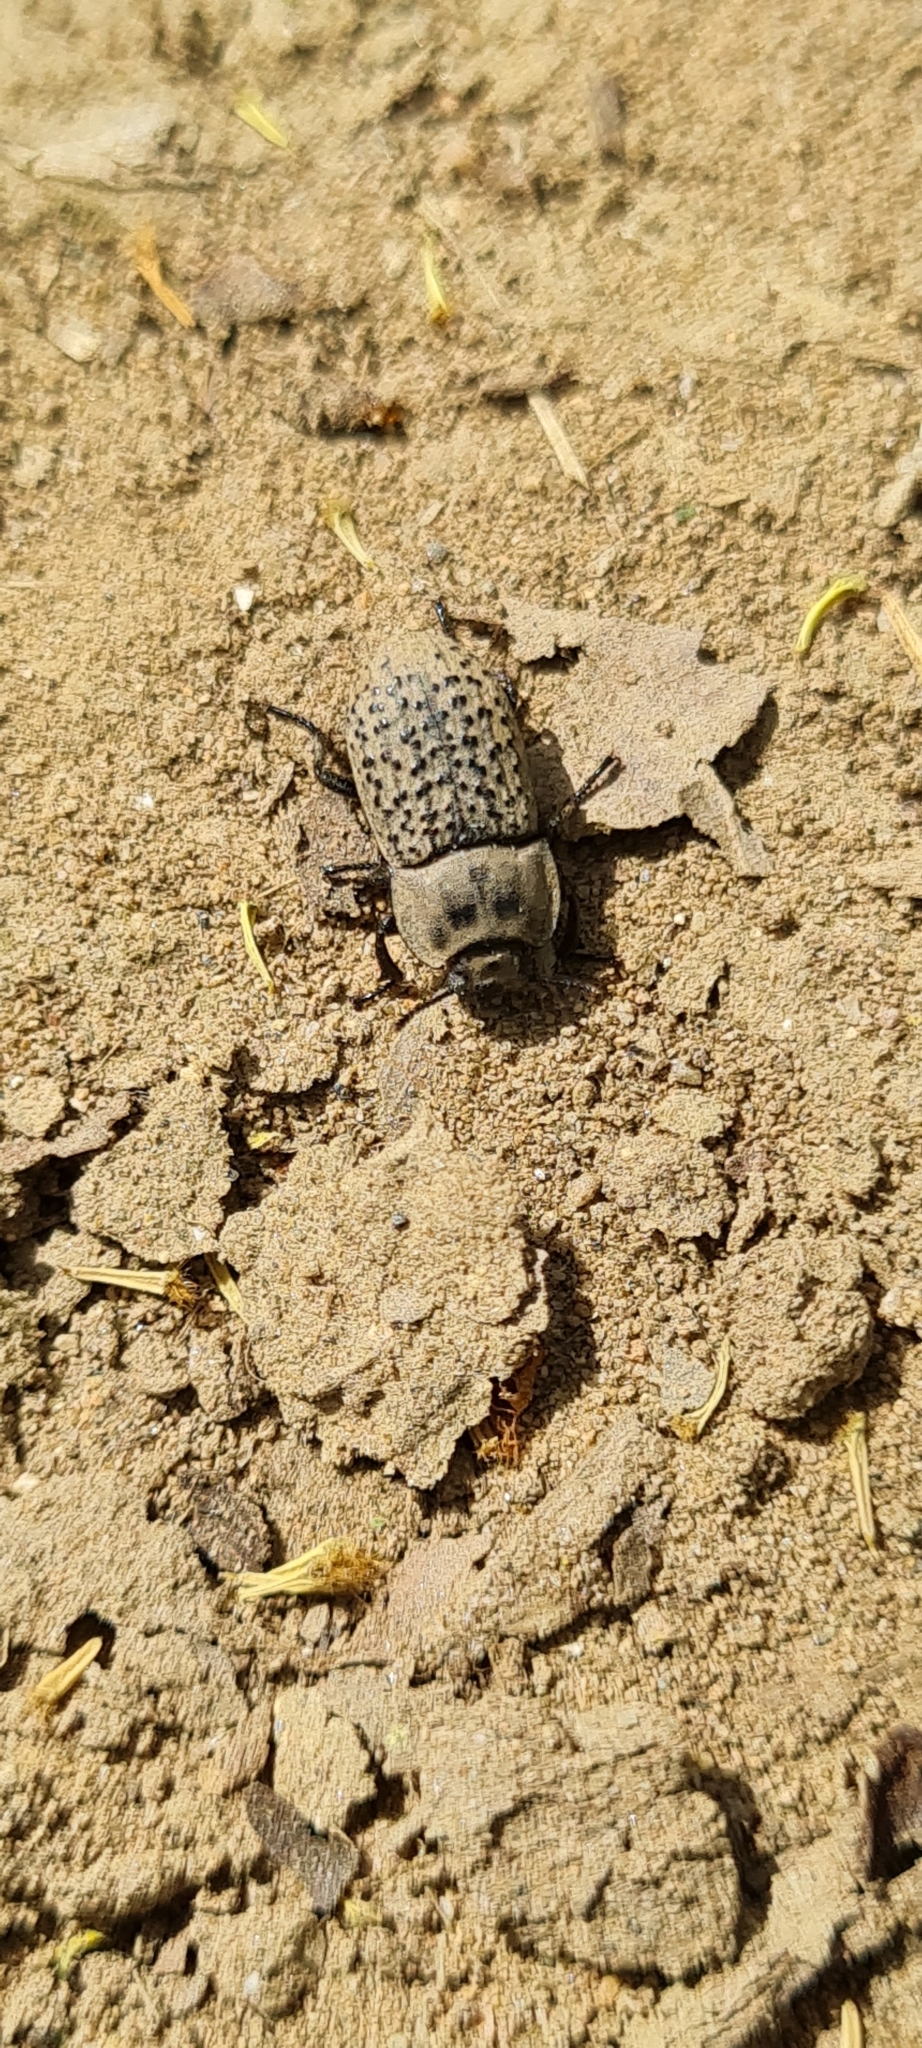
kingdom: Animalia
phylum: Arthropoda
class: Insecta
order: Coleoptera
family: Tenebrionidae
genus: Opatrum
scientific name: Opatrum sabulosum
